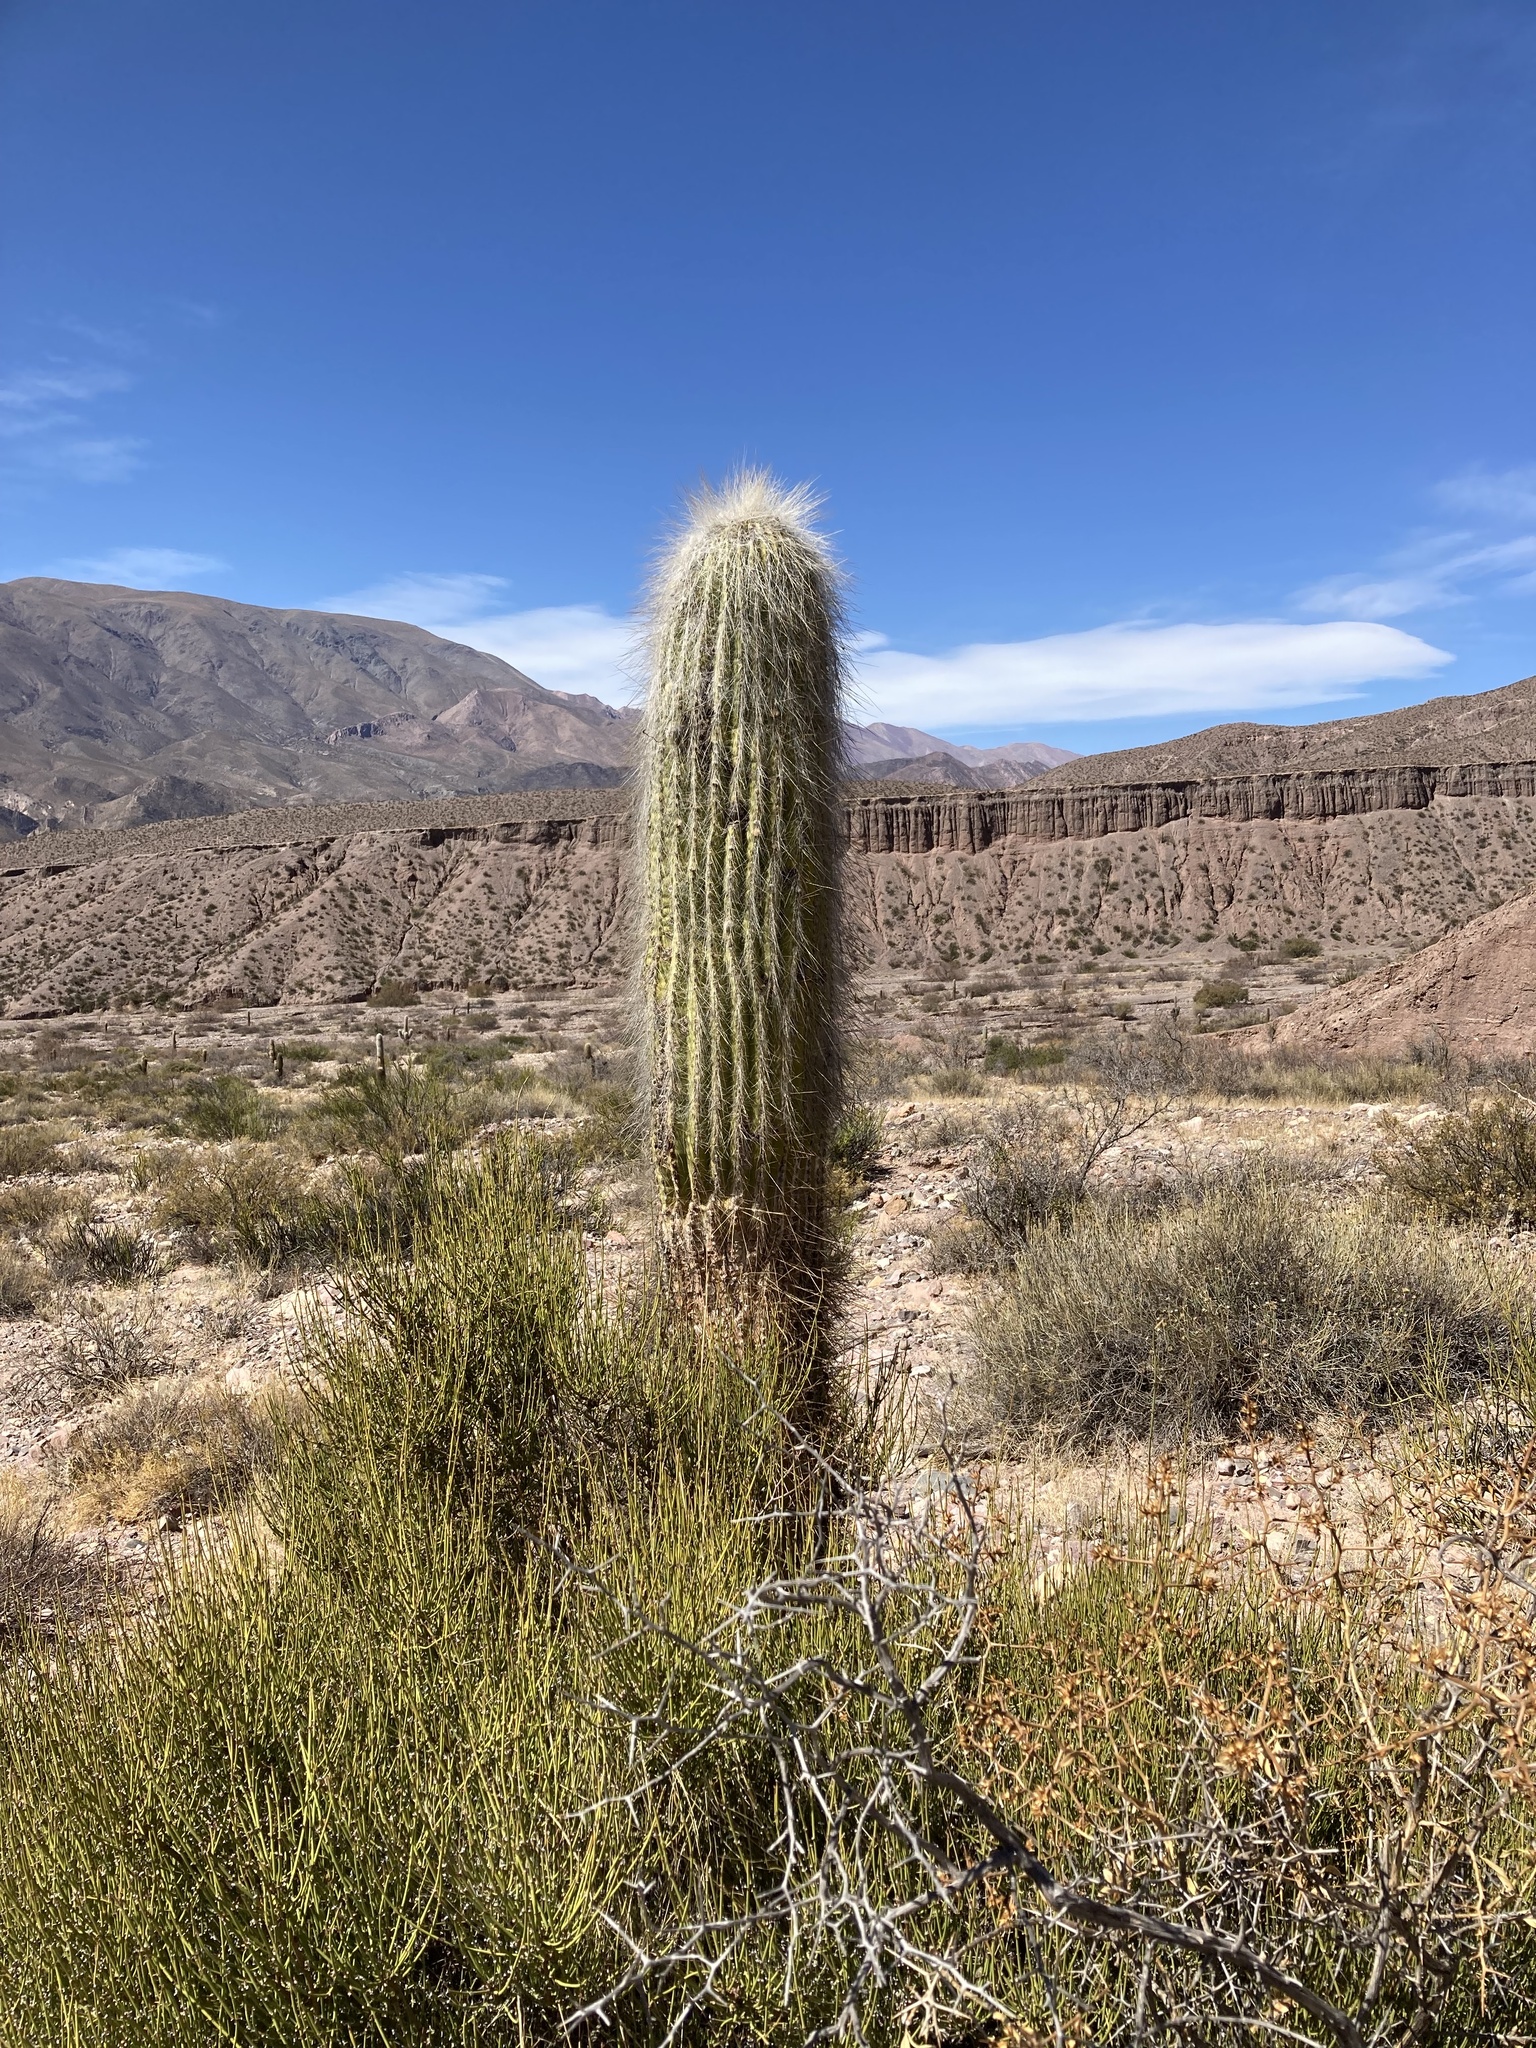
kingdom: Plantae
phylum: Tracheophyta
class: Magnoliopsida
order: Caryophyllales
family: Cactaceae
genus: Leucostele
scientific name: Leucostele atacamensis
